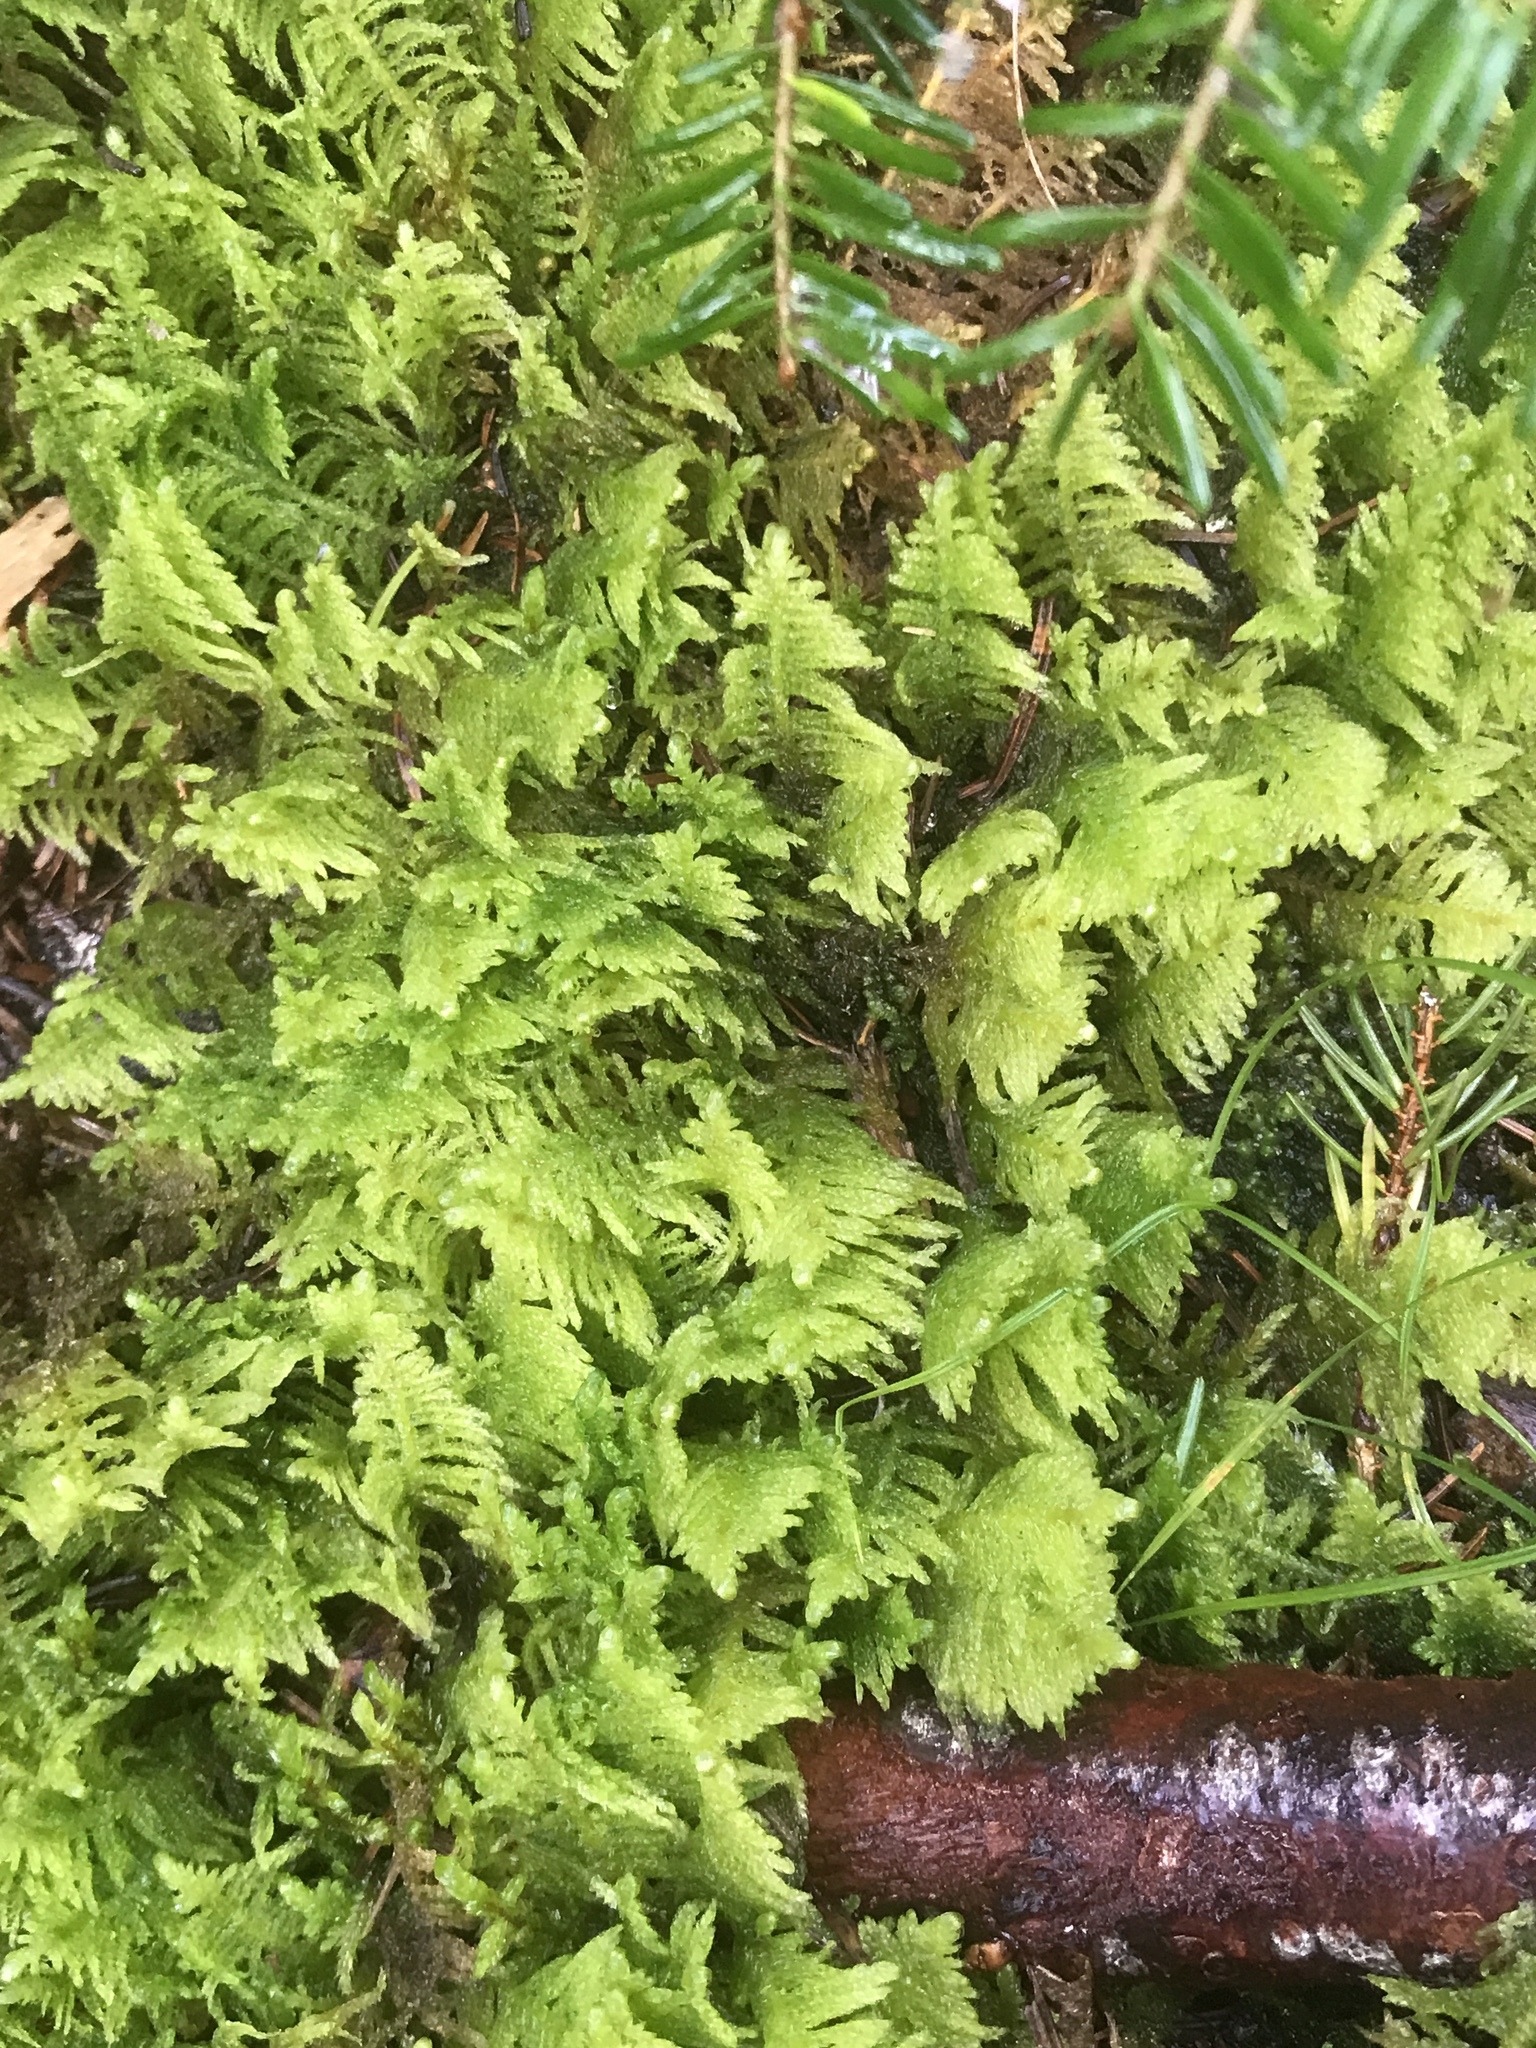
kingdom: Plantae
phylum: Bryophyta
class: Bryopsida
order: Hypnales
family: Pylaisiaceae
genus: Ptilium
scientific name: Ptilium crista-castrensis
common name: Knight's plume moss
